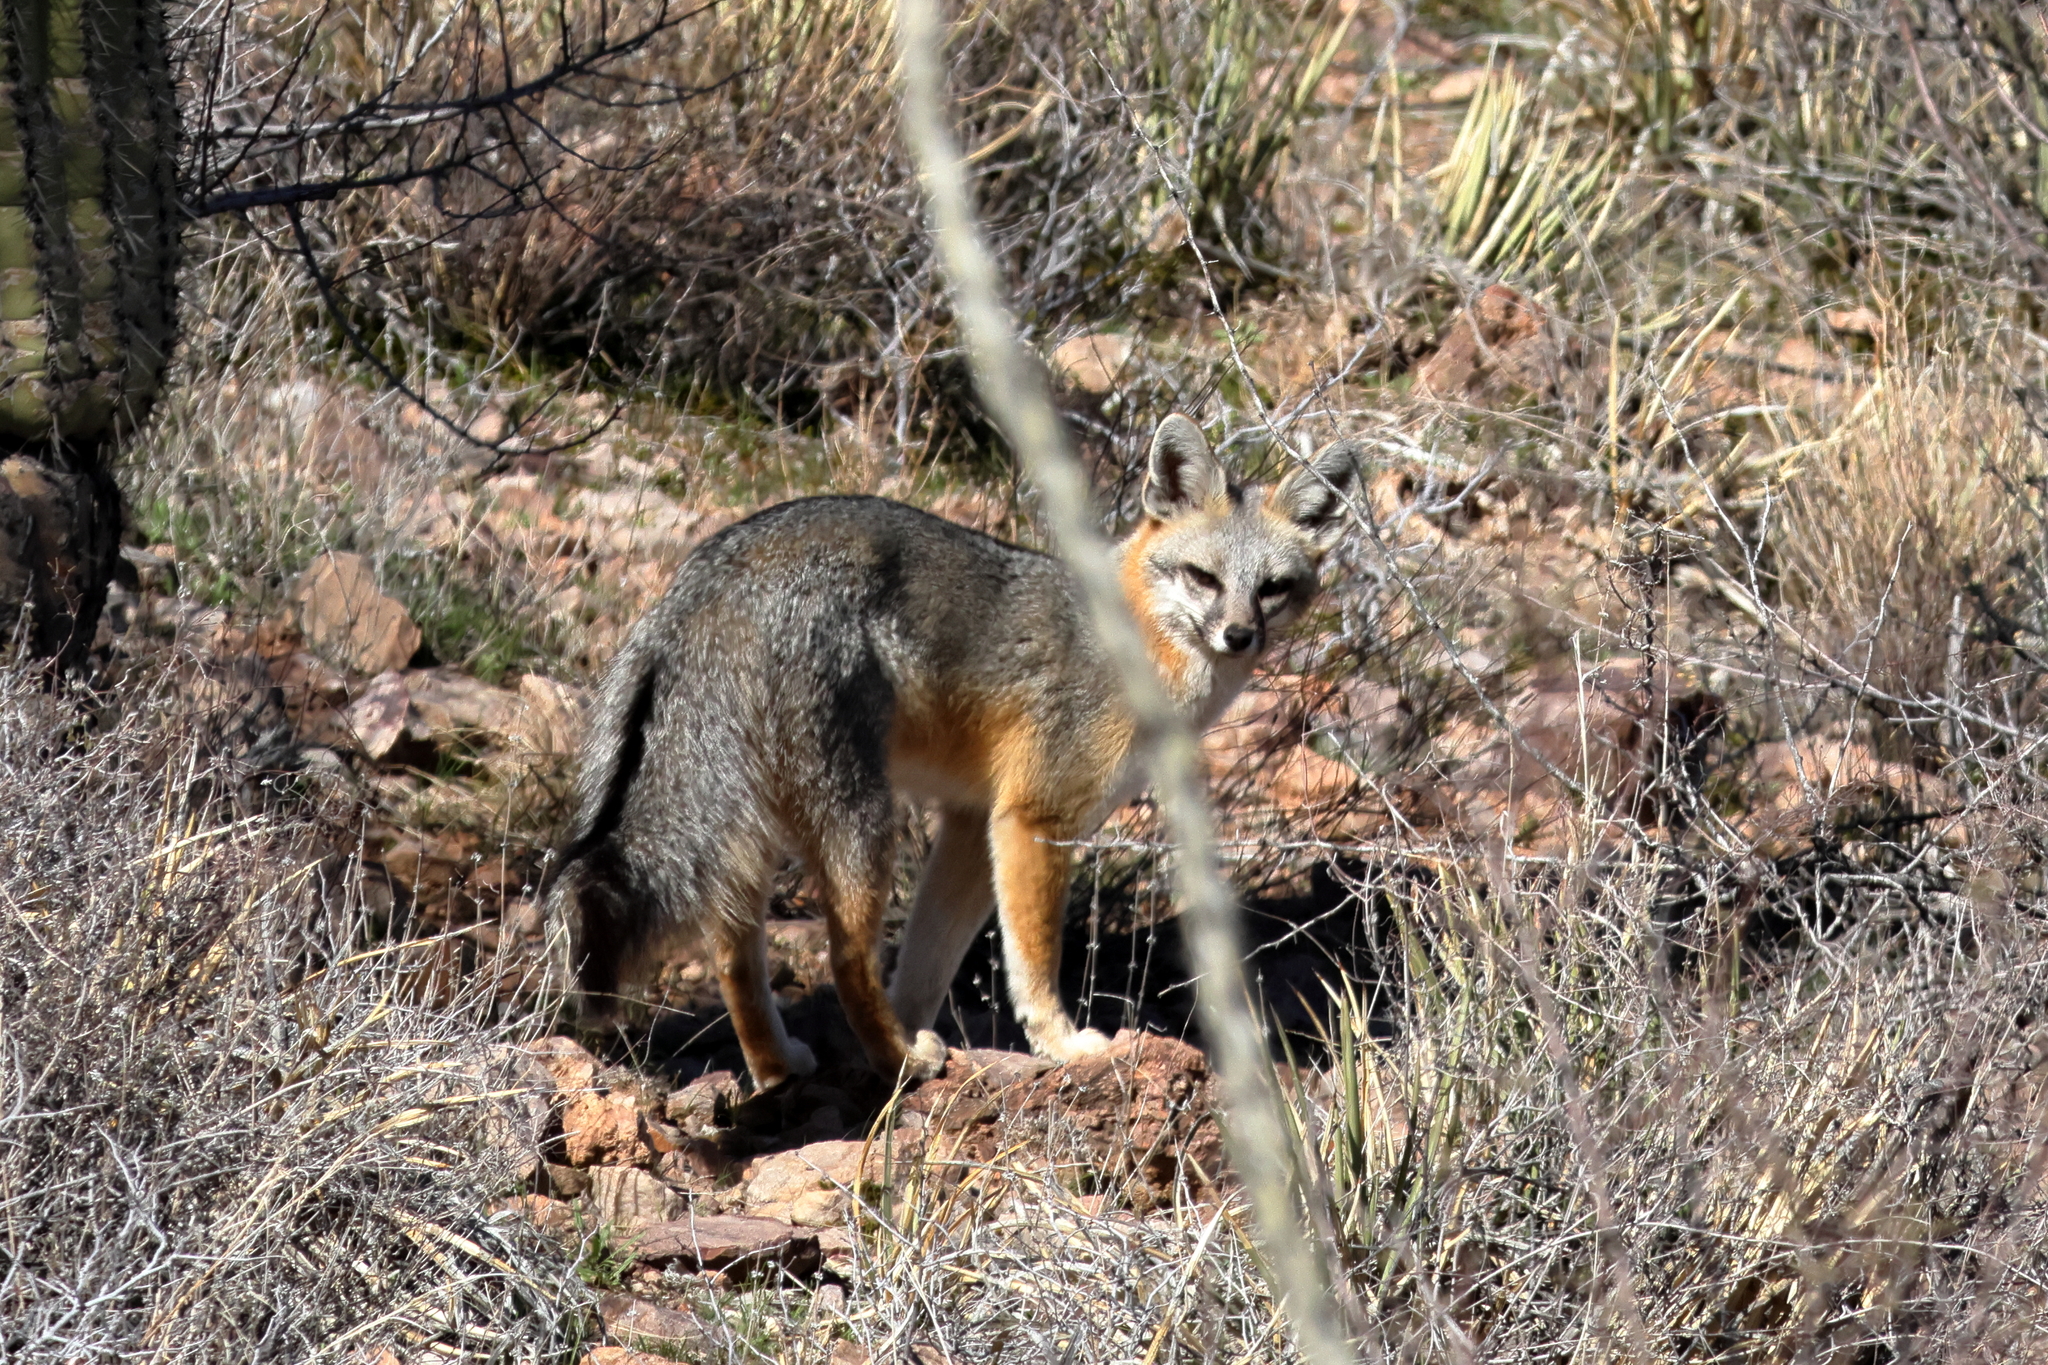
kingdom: Animalia
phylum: Chordata
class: Mammalia
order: Carnivora
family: Canidae
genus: Urocyon
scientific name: Urocyon cinereoargenteus
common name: Gray fox
